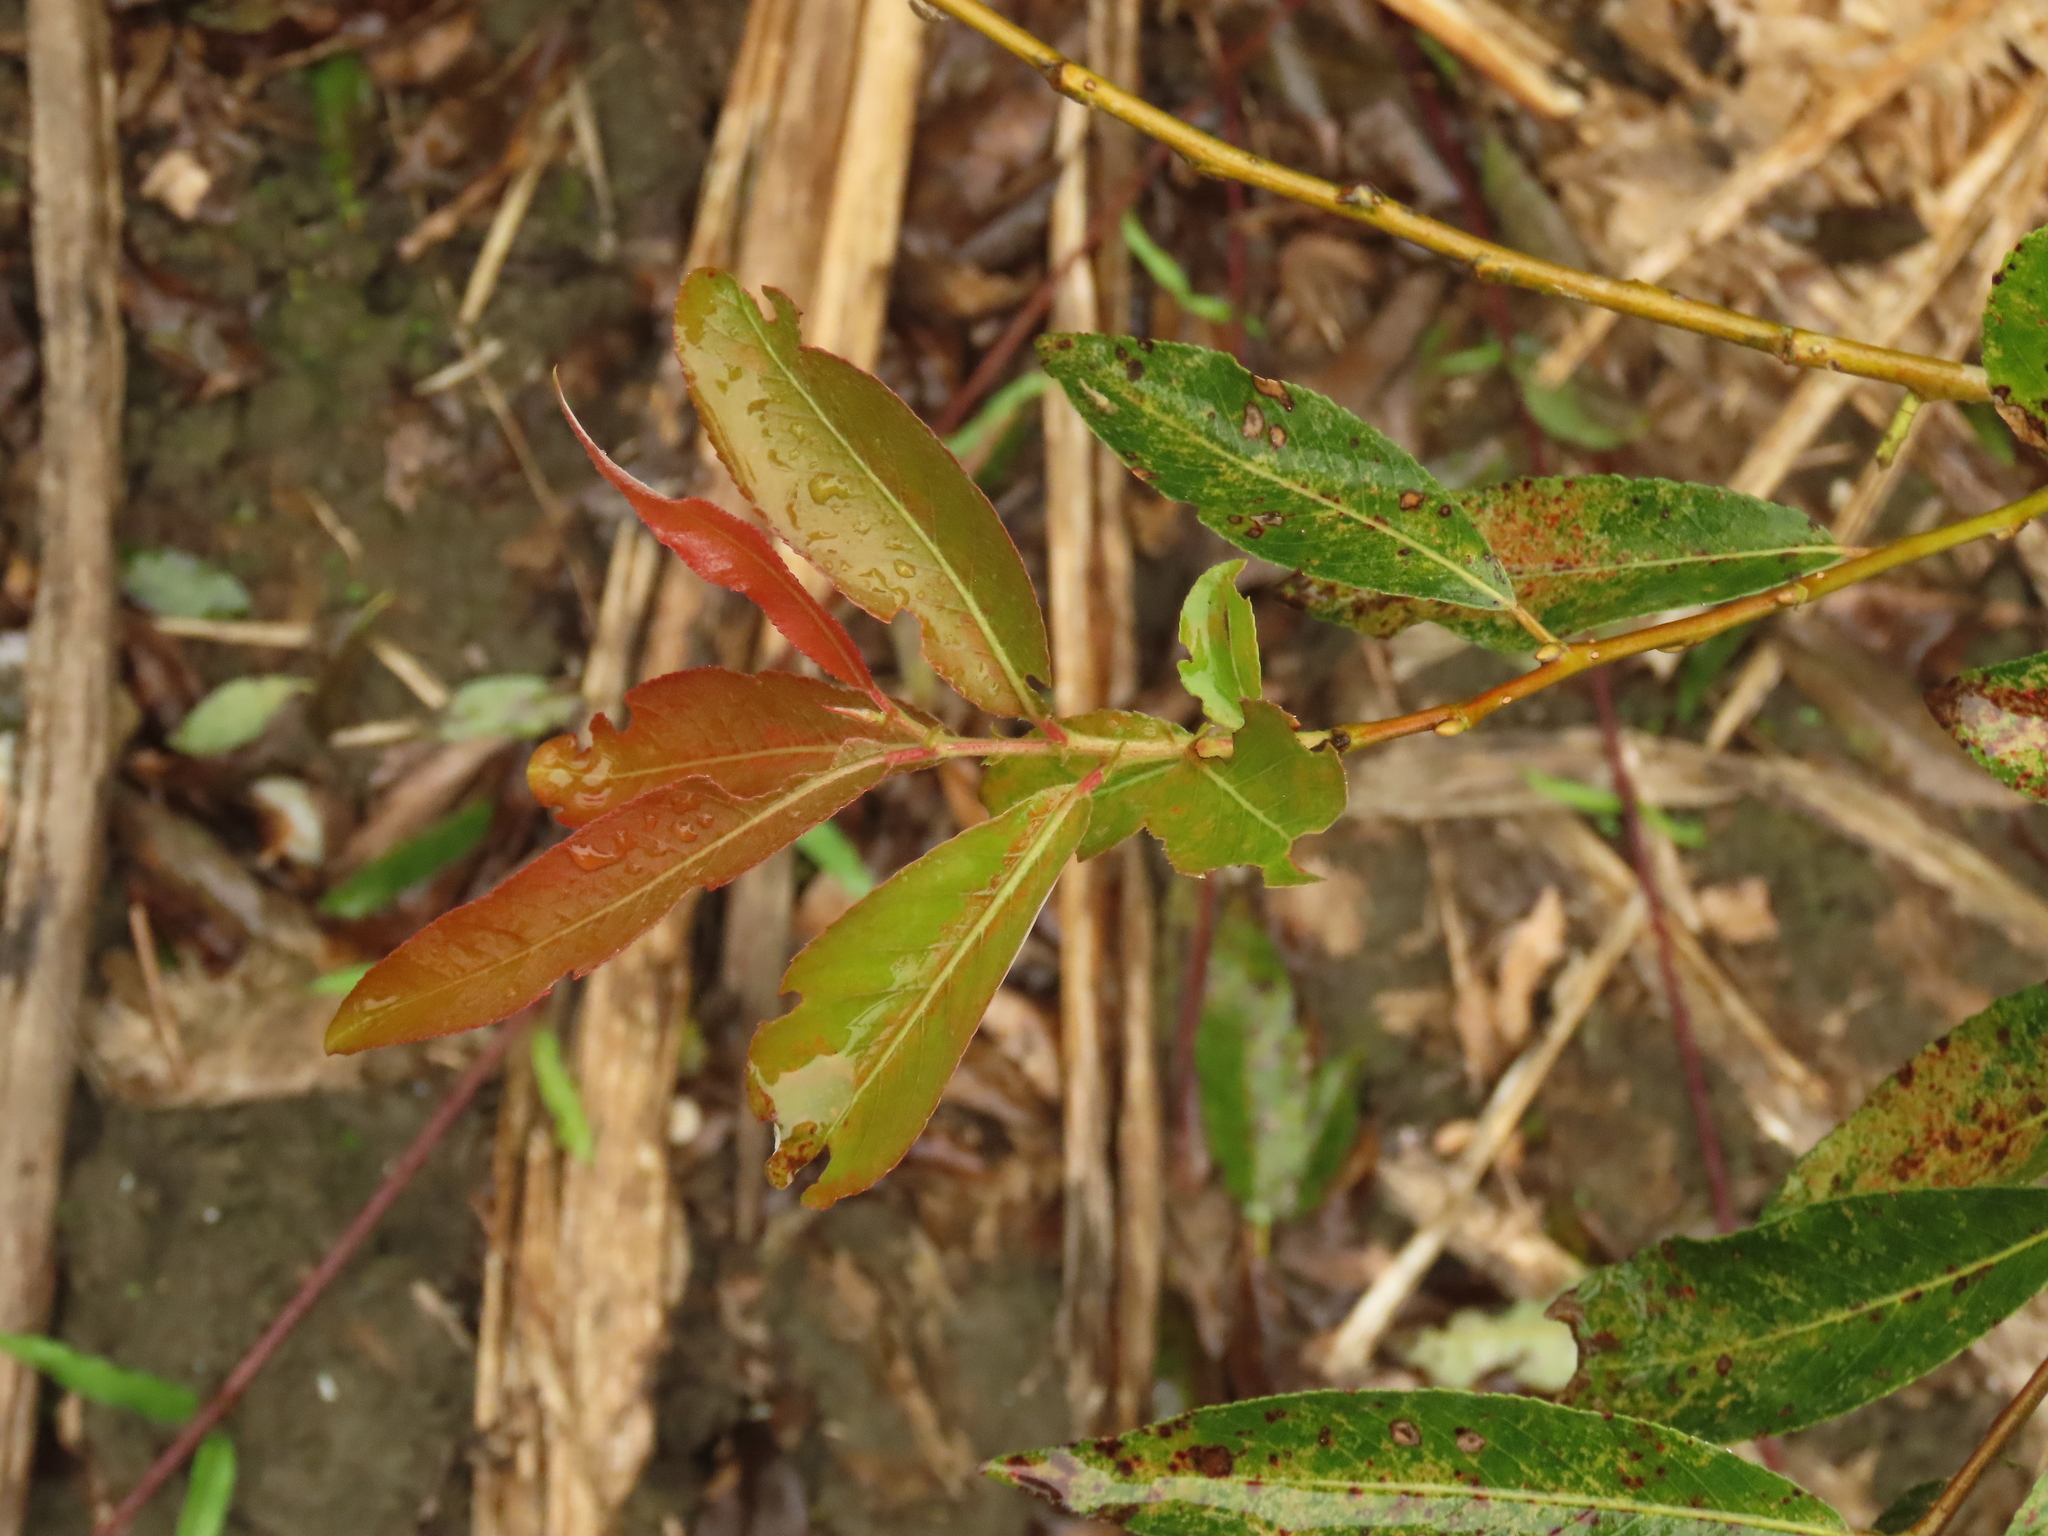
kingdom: Plantae
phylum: Tracheophyta
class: Magnoliopsida
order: Malpighiales
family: Salicaceae
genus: Salix
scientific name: Salix mesnyi
